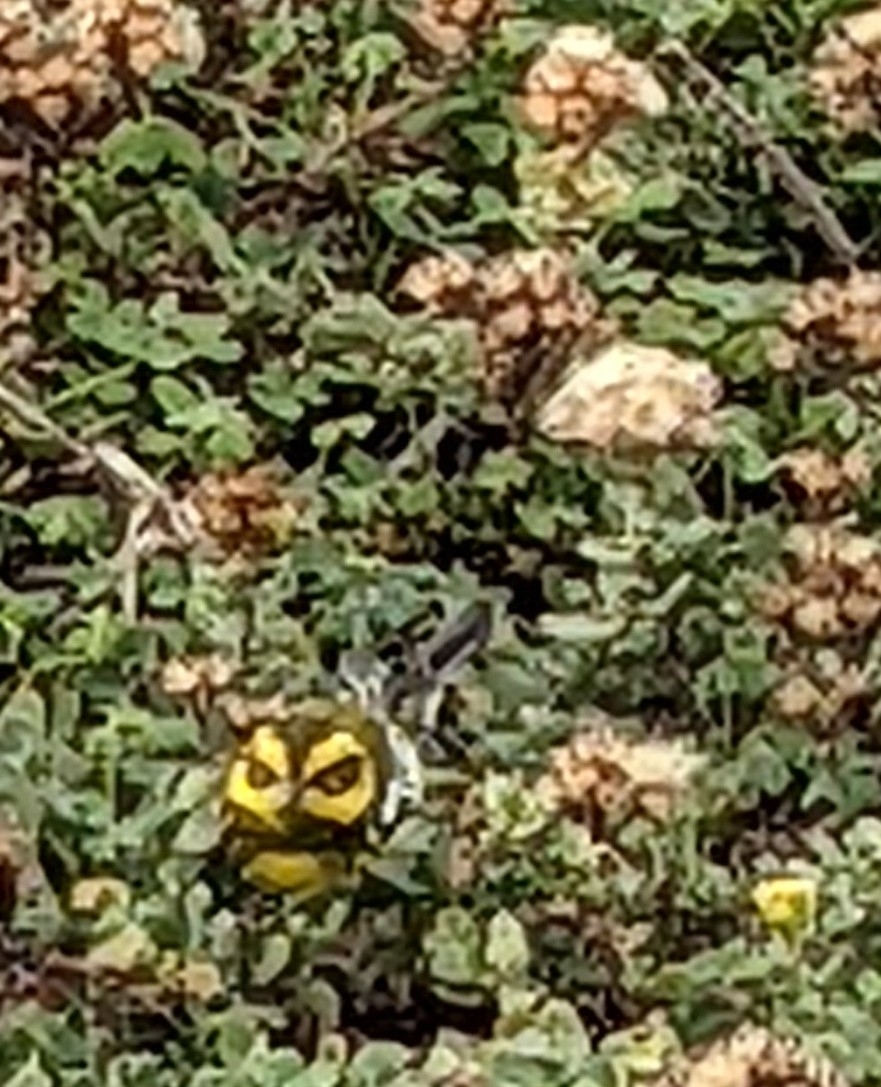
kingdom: Animalia
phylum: Chordata
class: Aves
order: Passeriformes
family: Parulidae
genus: Setophaga
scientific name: Setophaga townsendi
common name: Townsend's warbler
